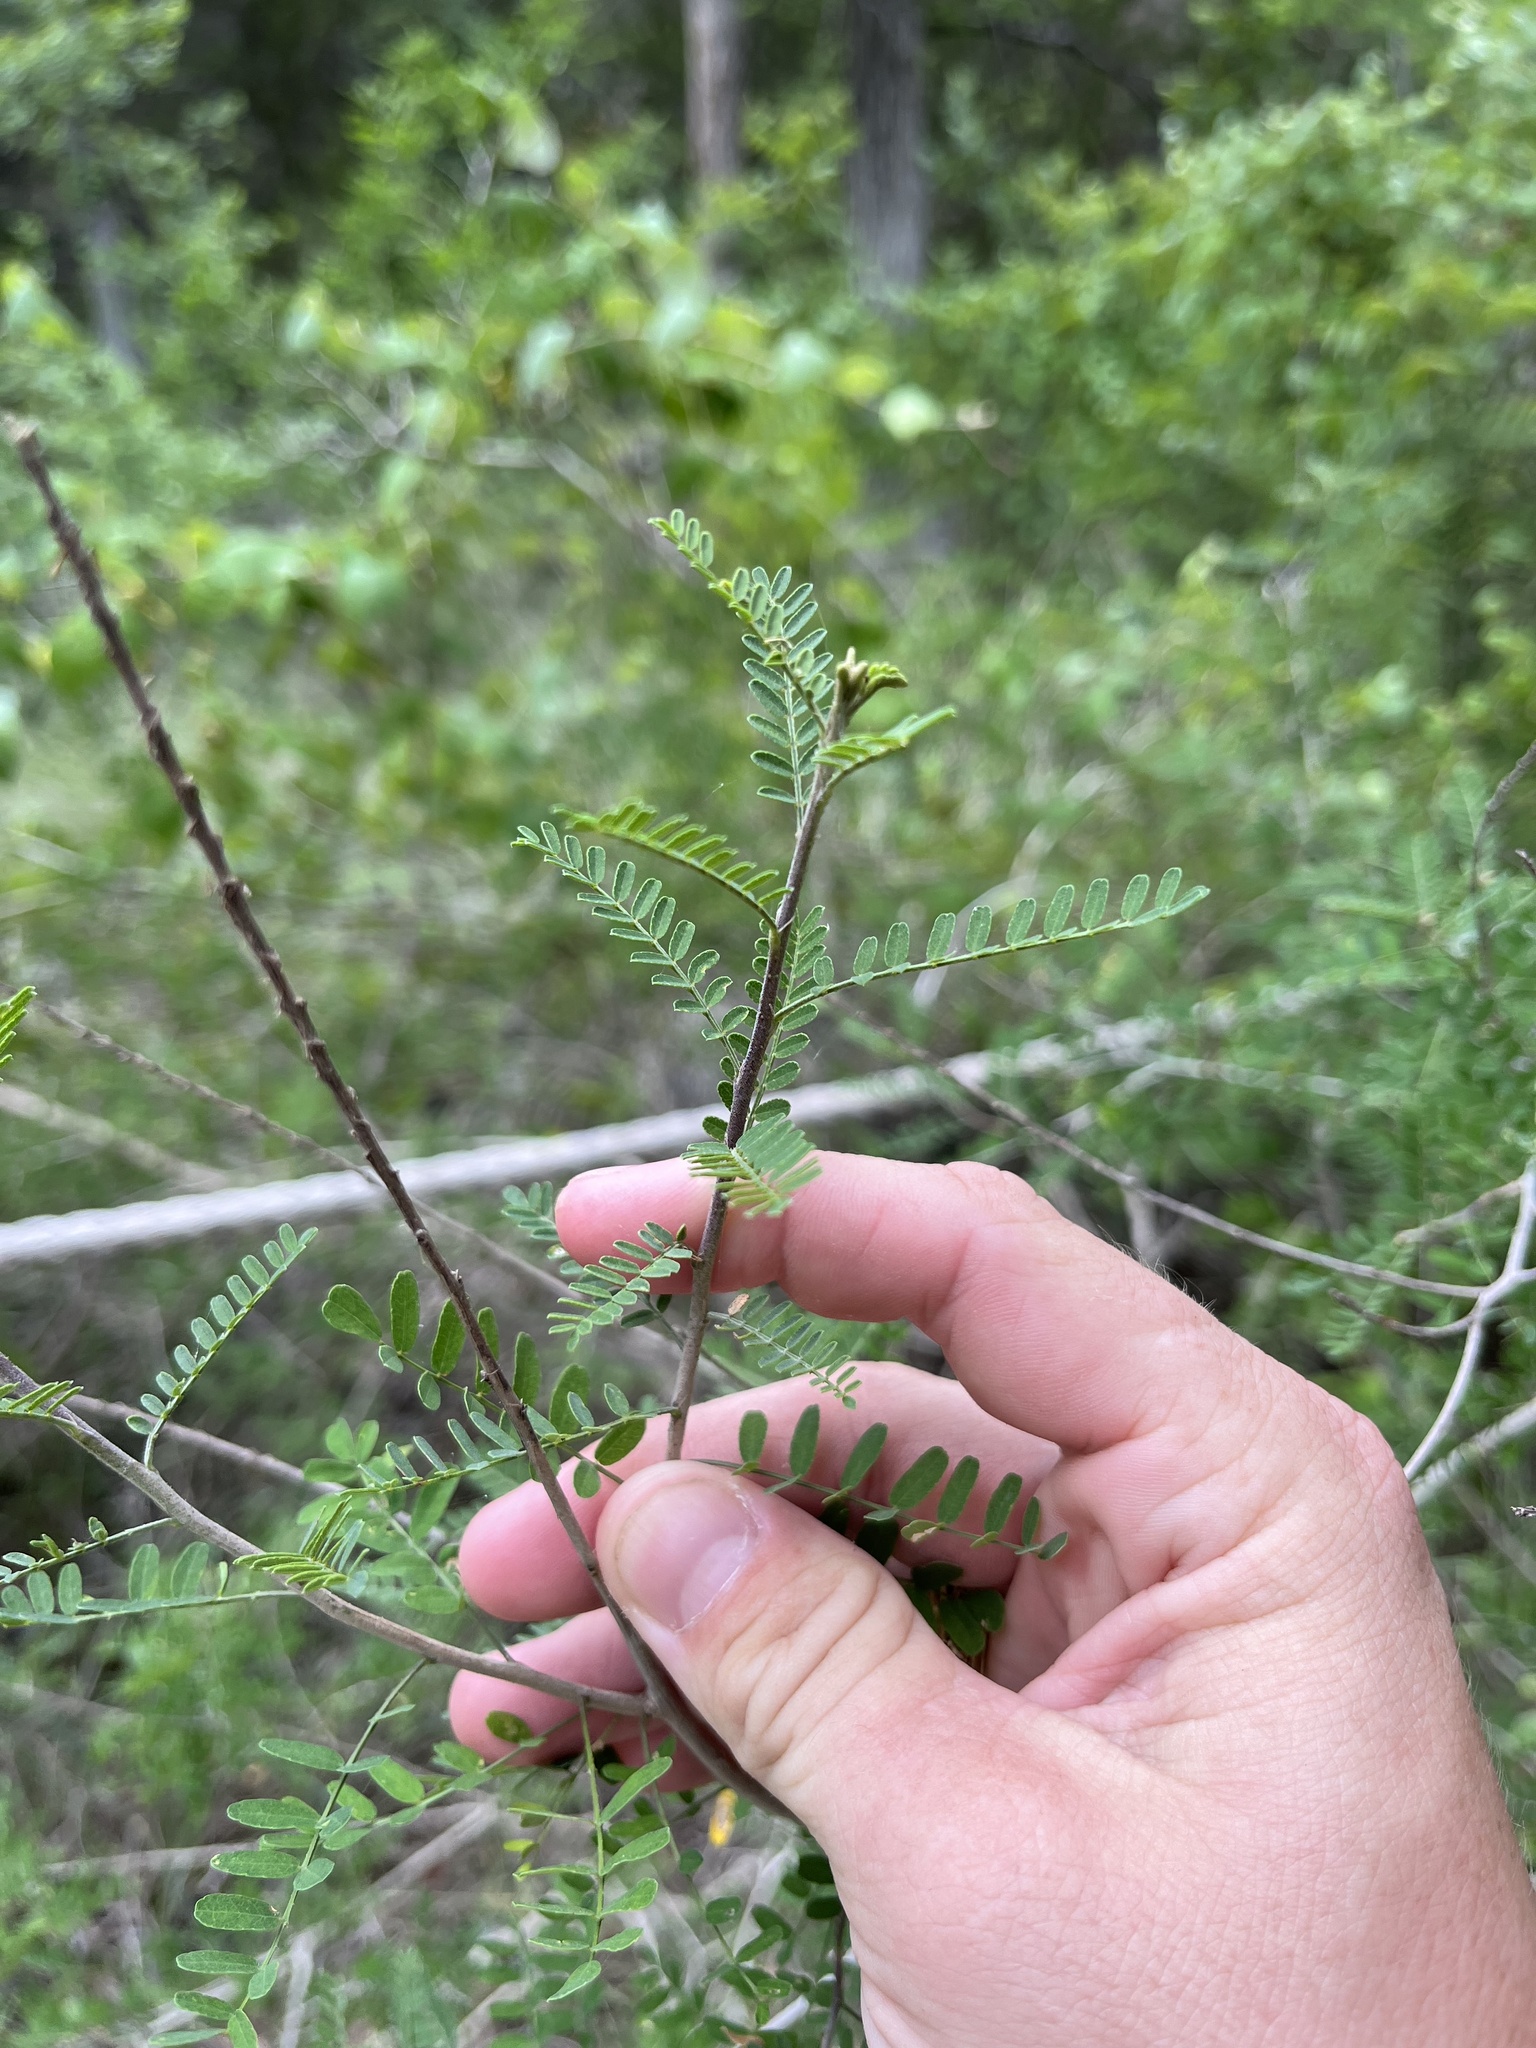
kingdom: Plantae
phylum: Tracheophyta
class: Magnoliopsida
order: Fabales
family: Fabaceae
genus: Eysenhardtia
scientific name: Eysenhardtia texana
